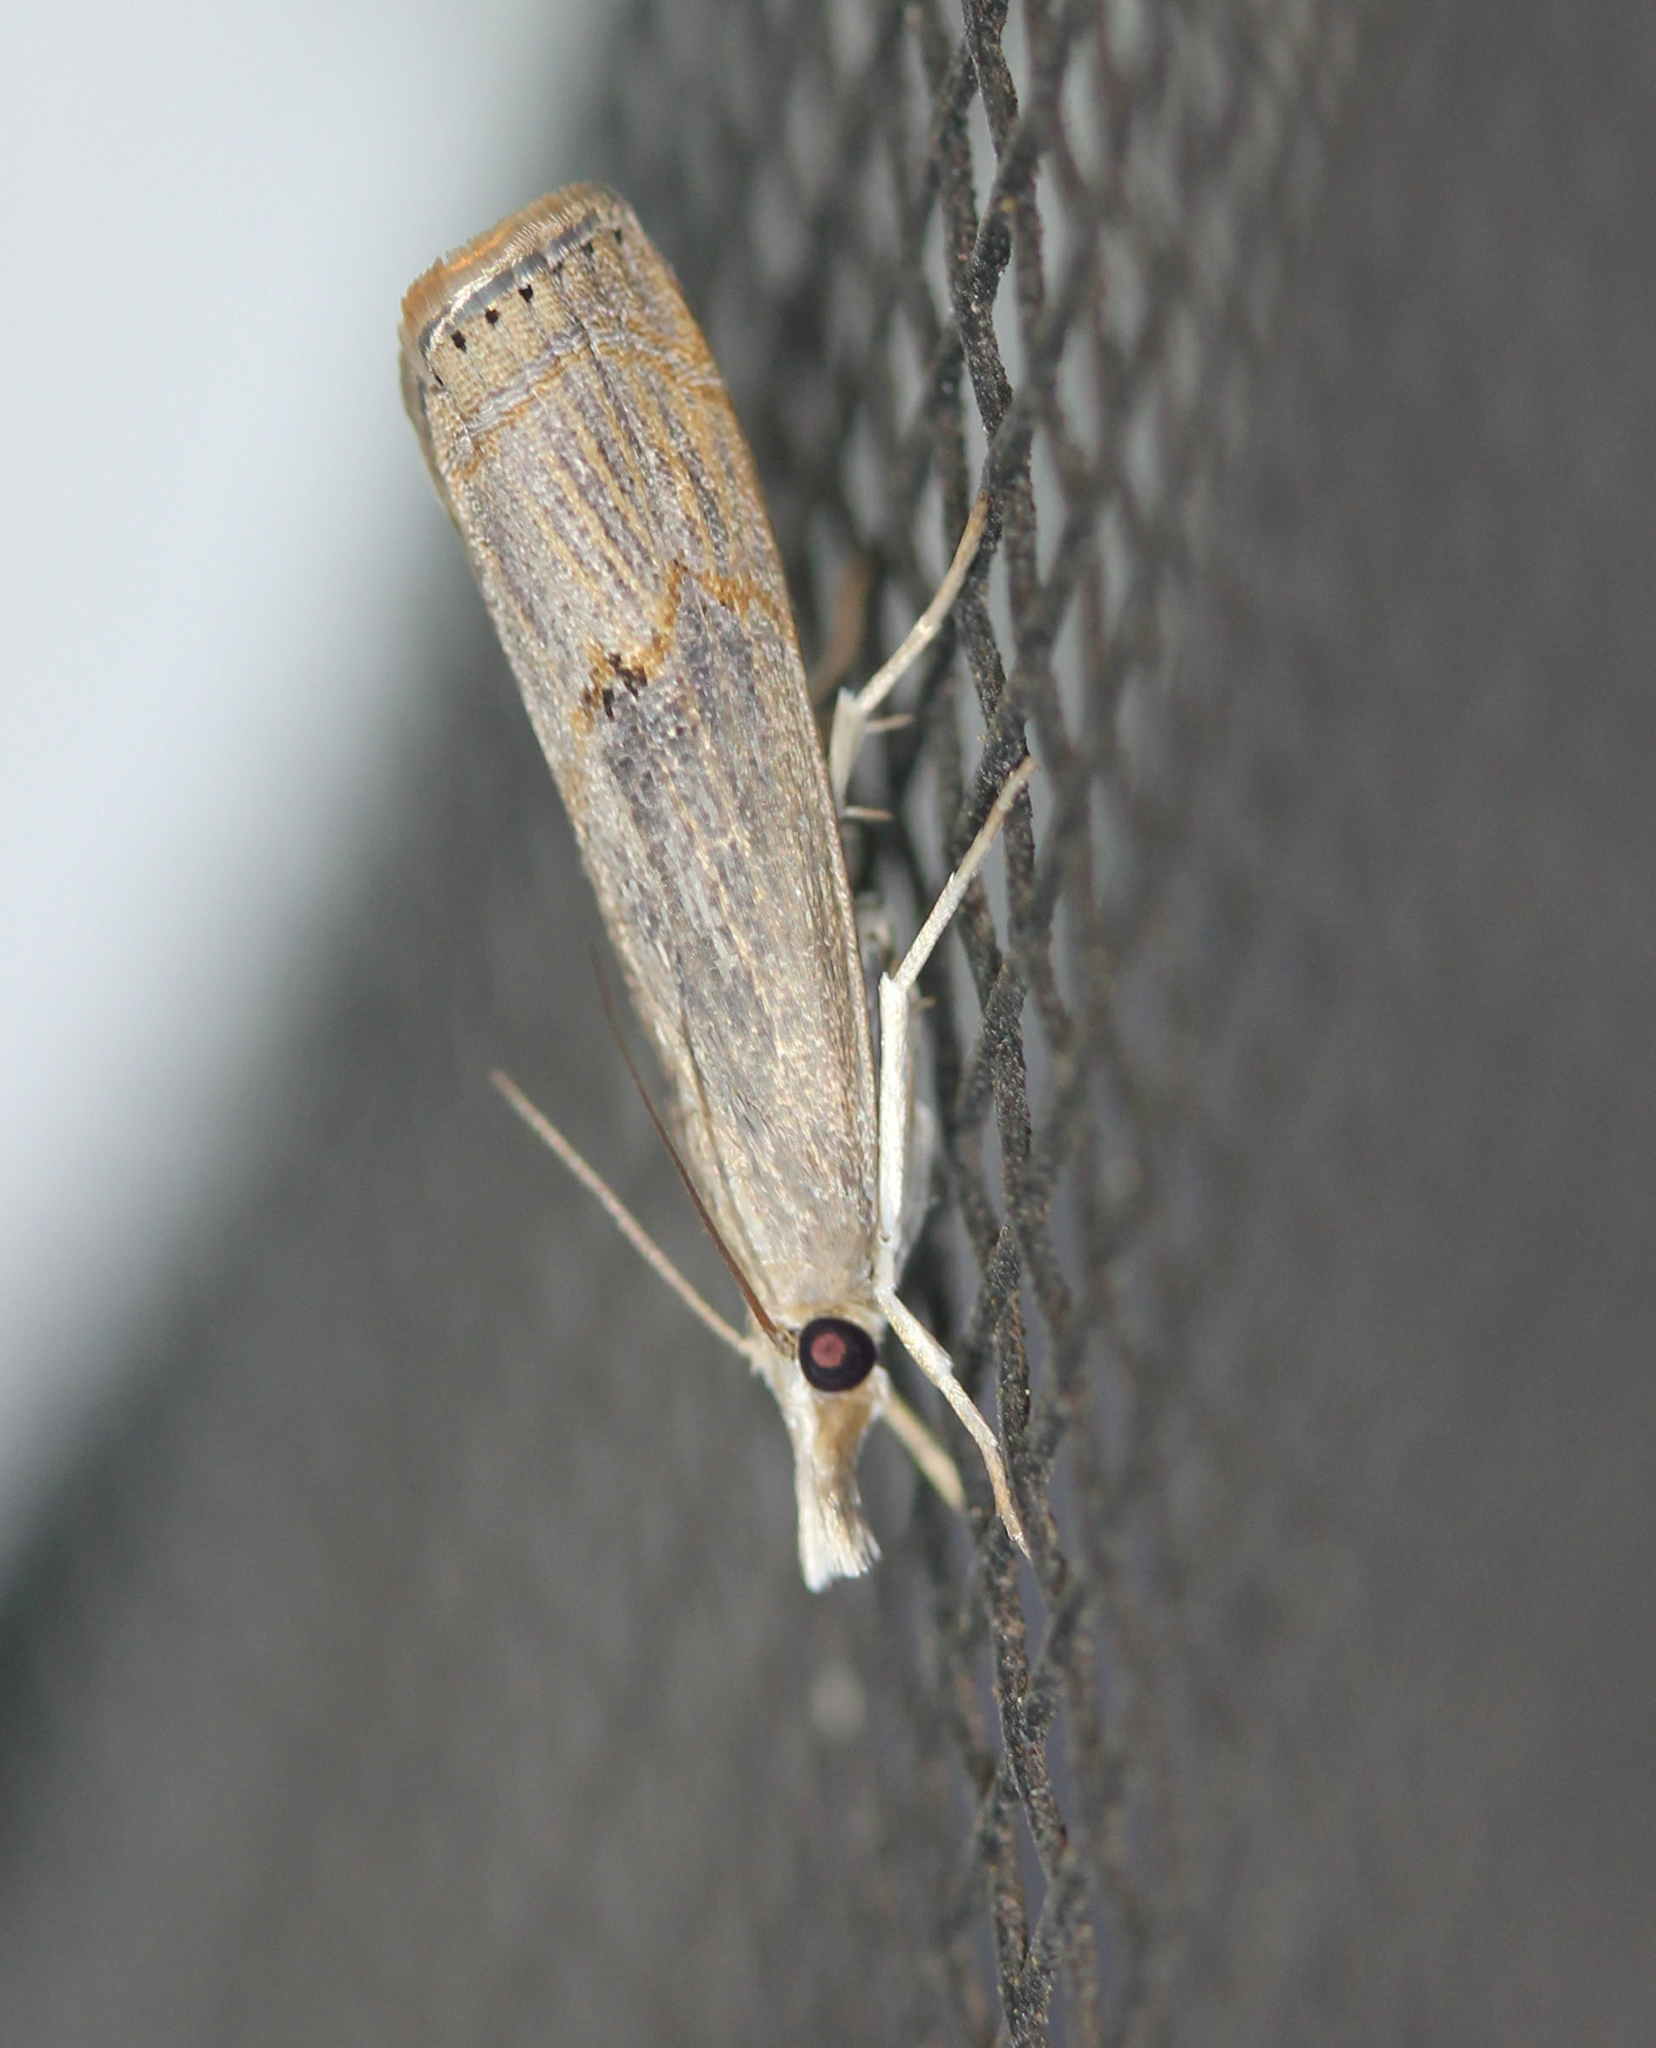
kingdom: Animalia
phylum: Arthropoda
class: Insecta
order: Lepidoptera
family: Crambidae
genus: Parapediasia
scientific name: Parapediasia teterellus
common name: Bluegrass webworm moth
